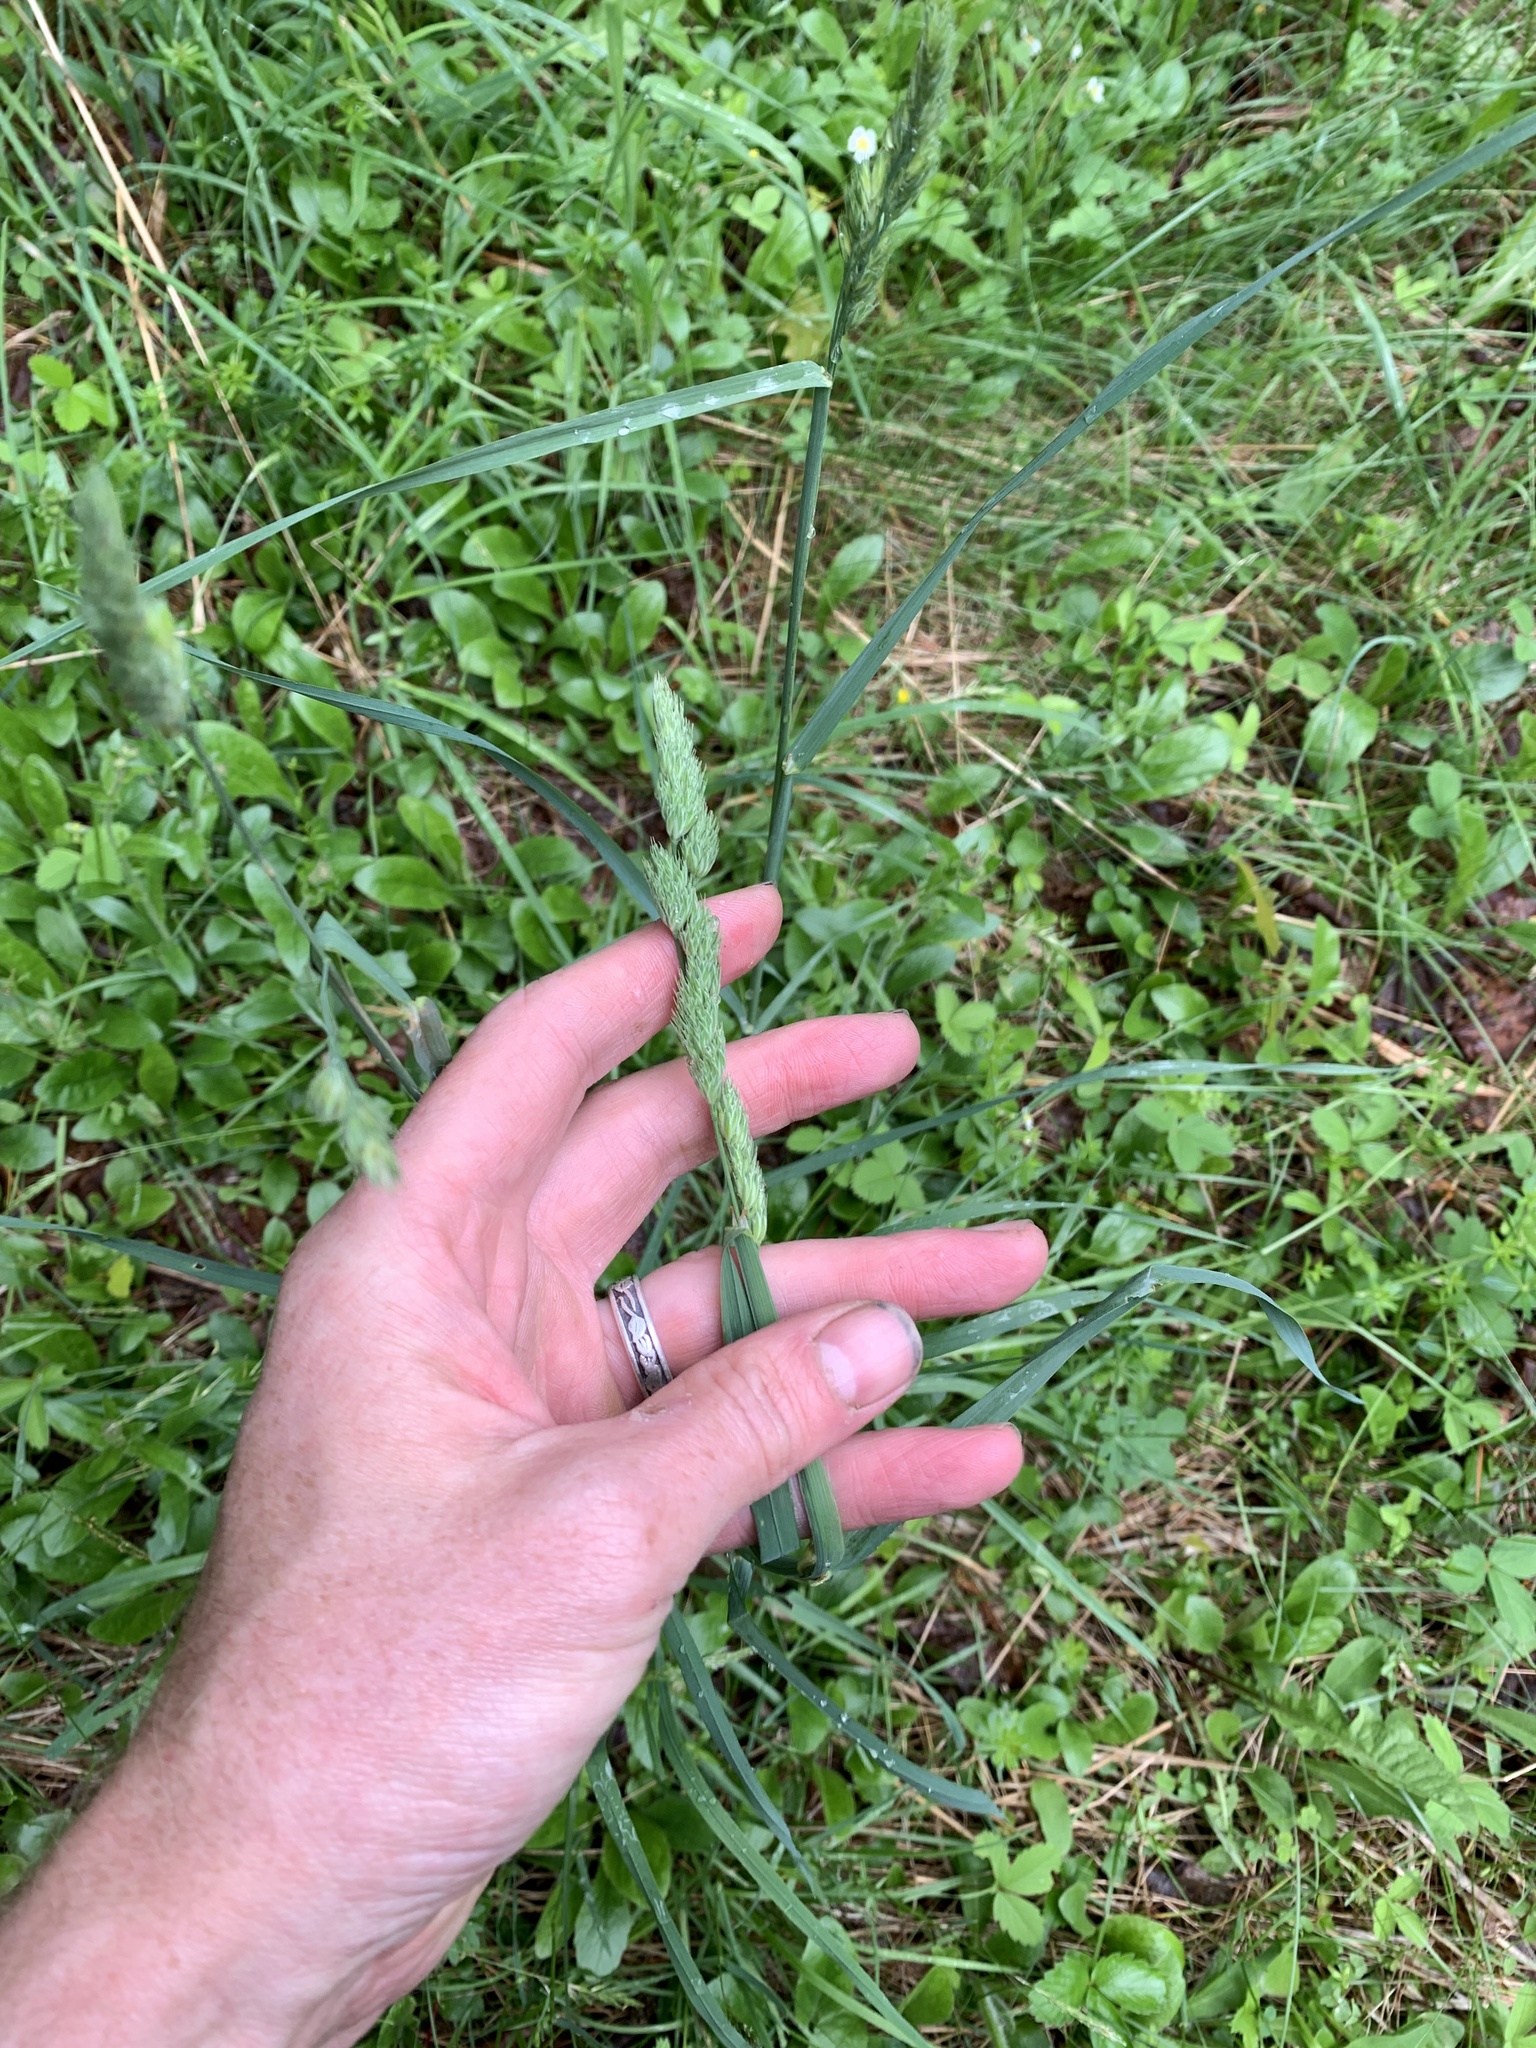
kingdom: Plantae
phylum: Tracheophyta
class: Liliopsida
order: Poales
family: Poaceae
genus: Dactylis
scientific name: Dactylis glomerata
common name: Orchardgrass
